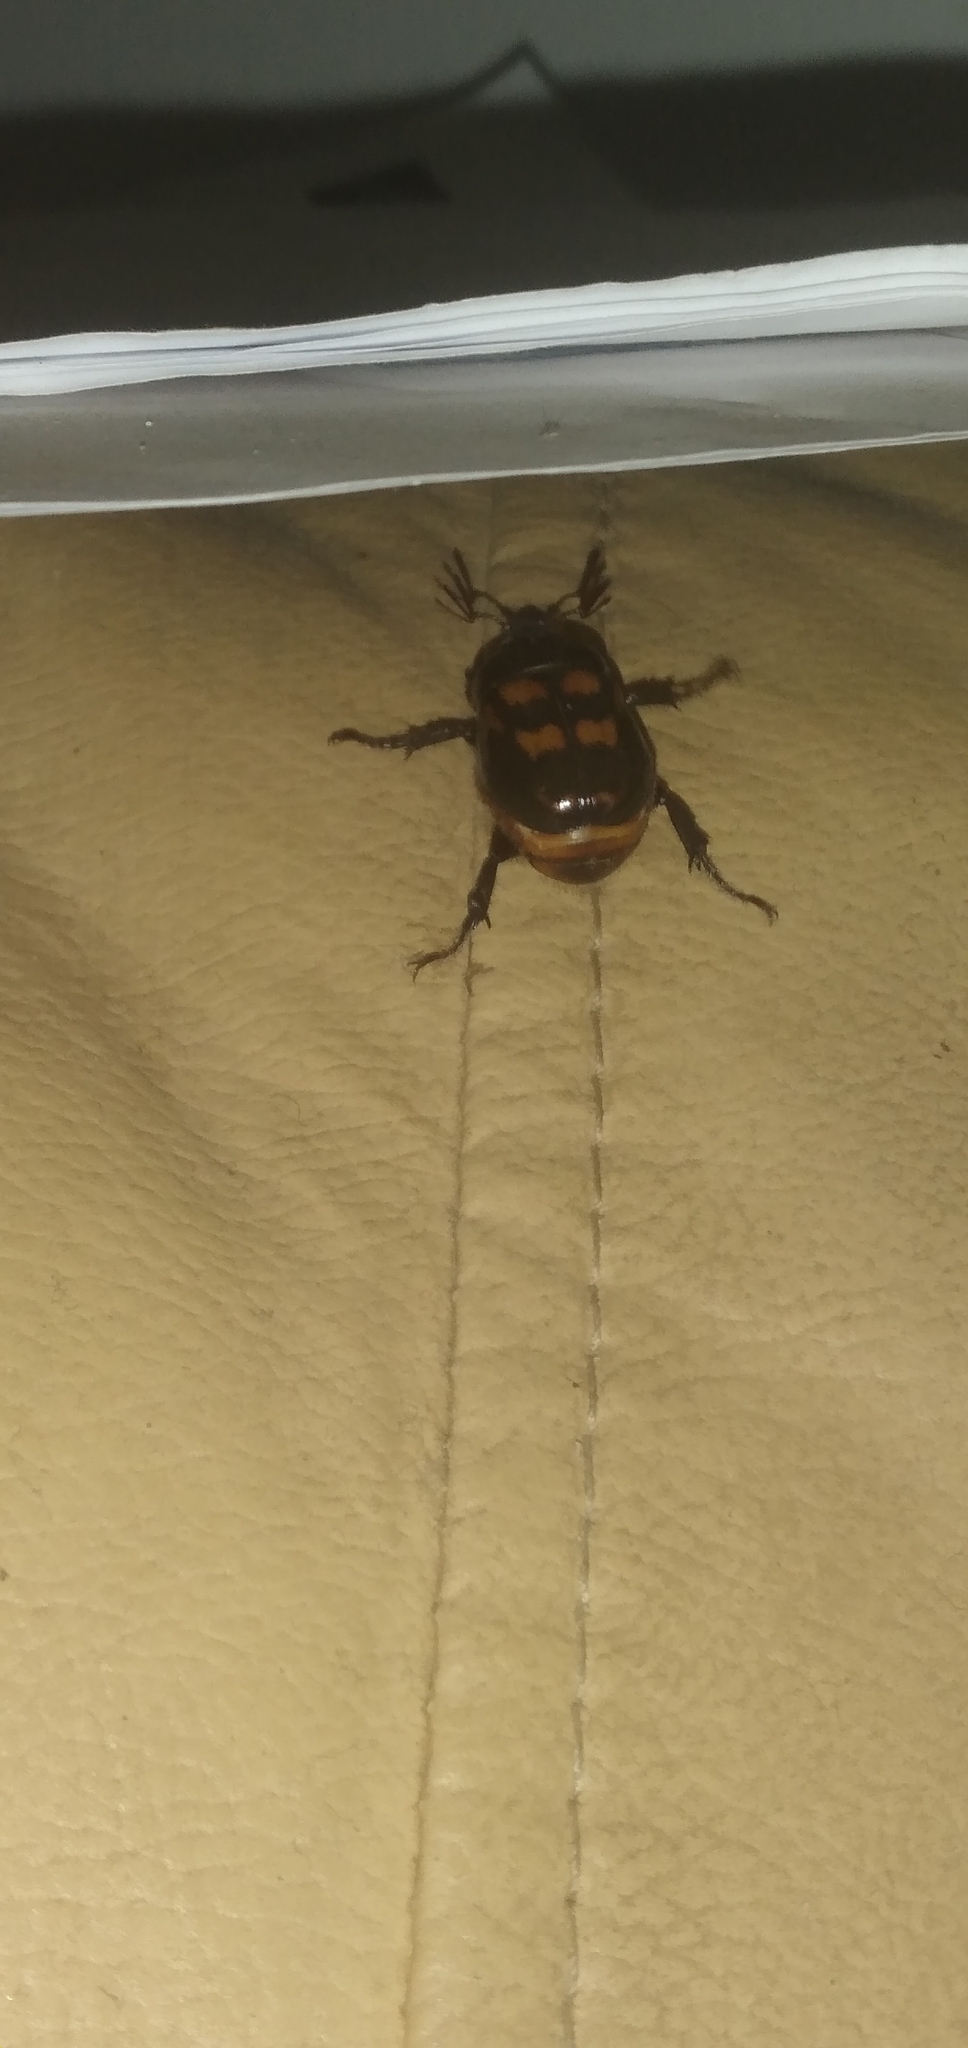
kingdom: Animalia
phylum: Arthropoda
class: Insecta
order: Coleoptera
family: Scarabaeidae
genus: Oryctomorphus
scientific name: Oryctomorphus bimaculatus
